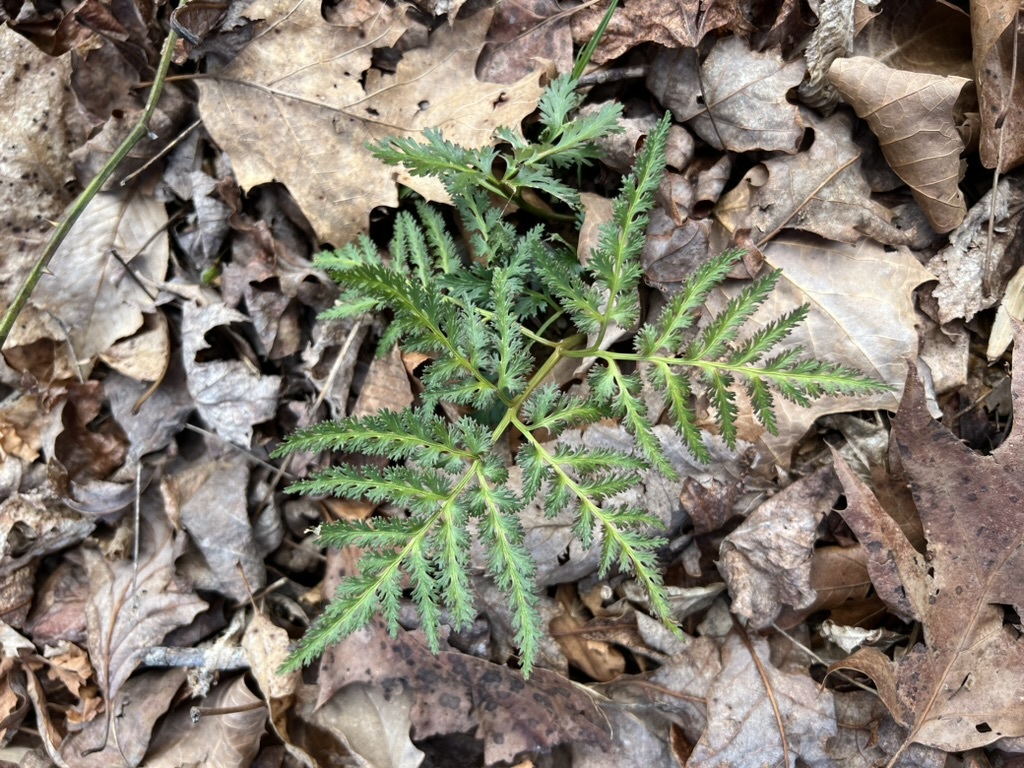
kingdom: Plantae
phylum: Tracheophyta
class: Polypodiopsida
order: Ophioglossales
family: Ophioglossaceae
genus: Sceptridium
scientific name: Sceptridium dissectum
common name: Cut-leaved grapefern
